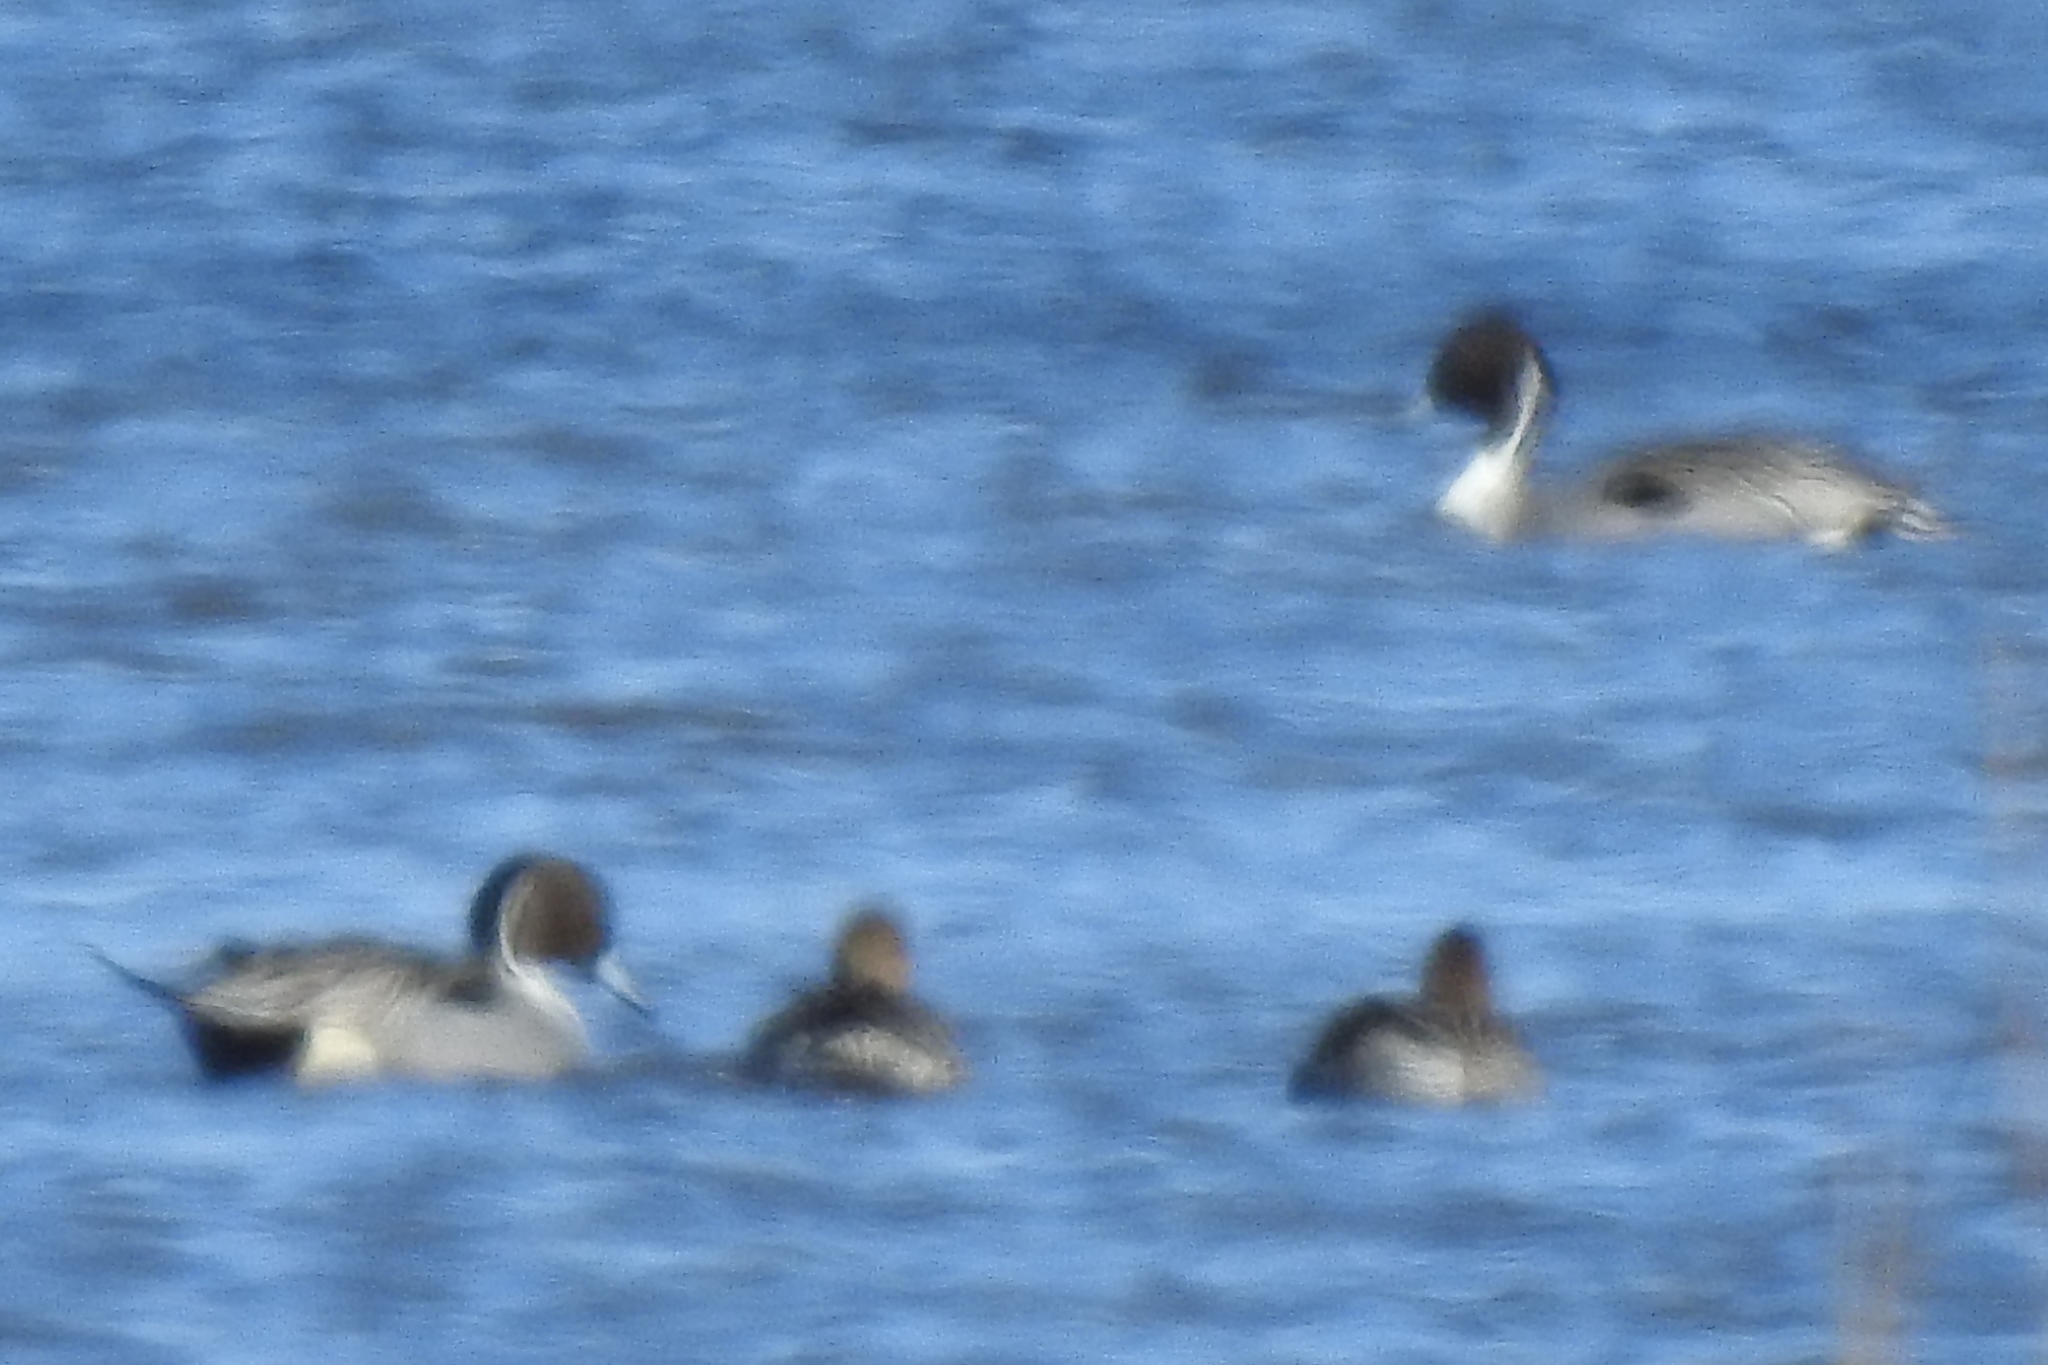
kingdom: Animalia
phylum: Chordata
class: Aves
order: Anseriformes
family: Anatidae
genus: Anas
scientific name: Anas acuta
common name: Northern pintail
